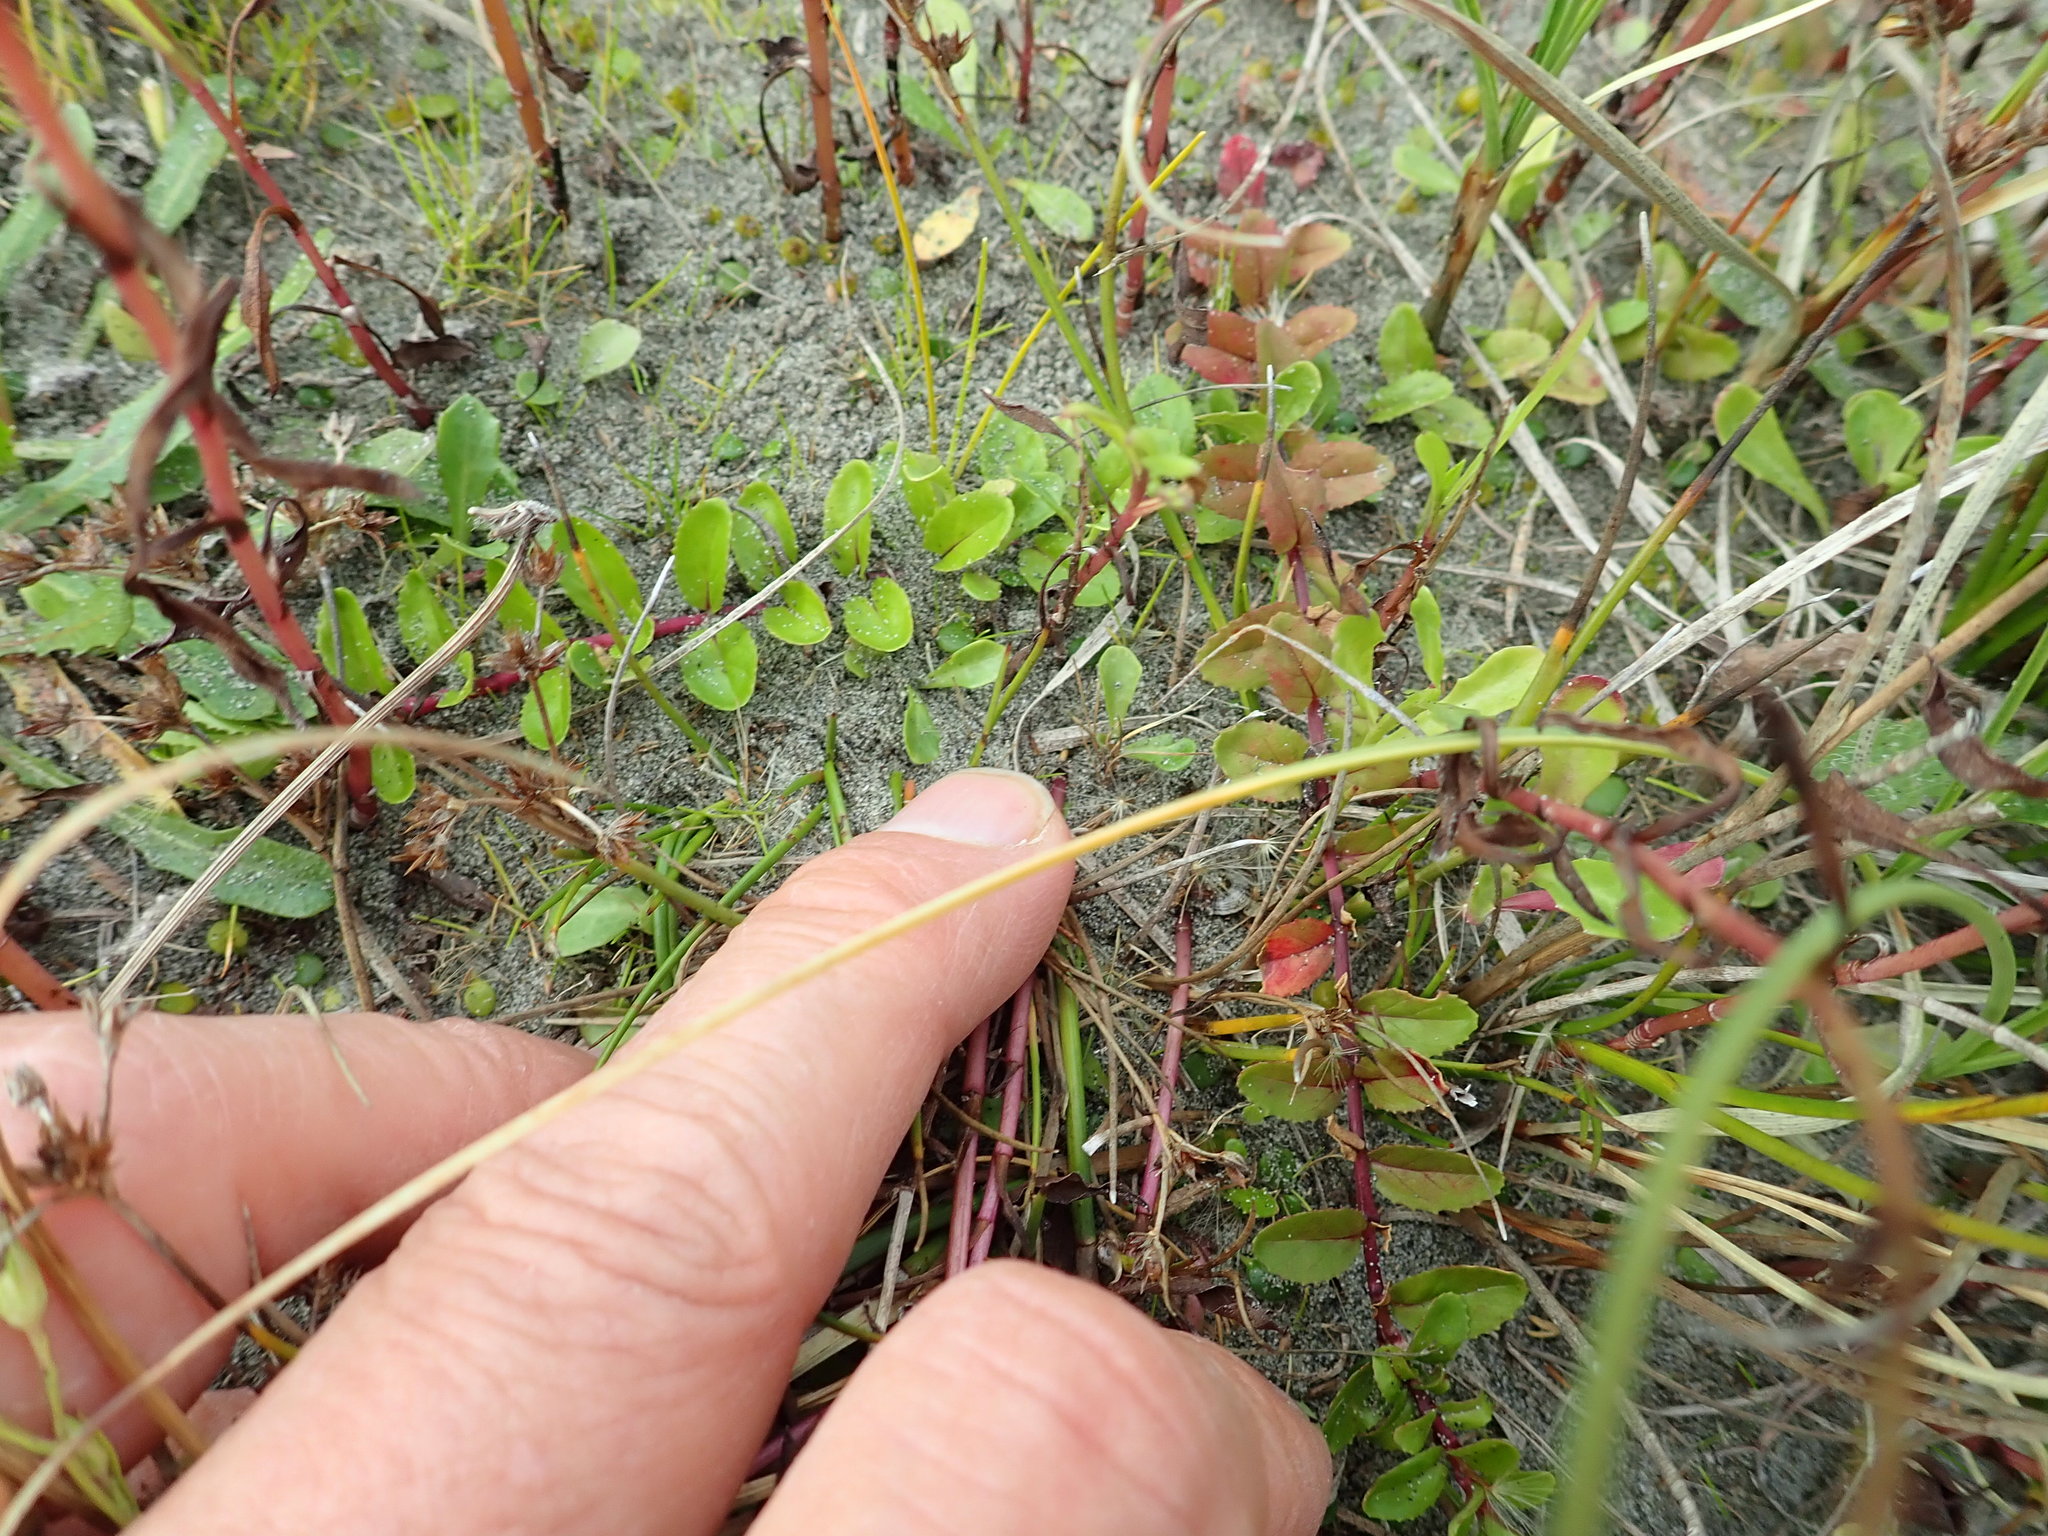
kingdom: Plantae
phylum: Tracheophyta
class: Magnoliopsida
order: Myrtales
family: Onagraceae
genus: Epilobium
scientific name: Epilobium billardiereanum
